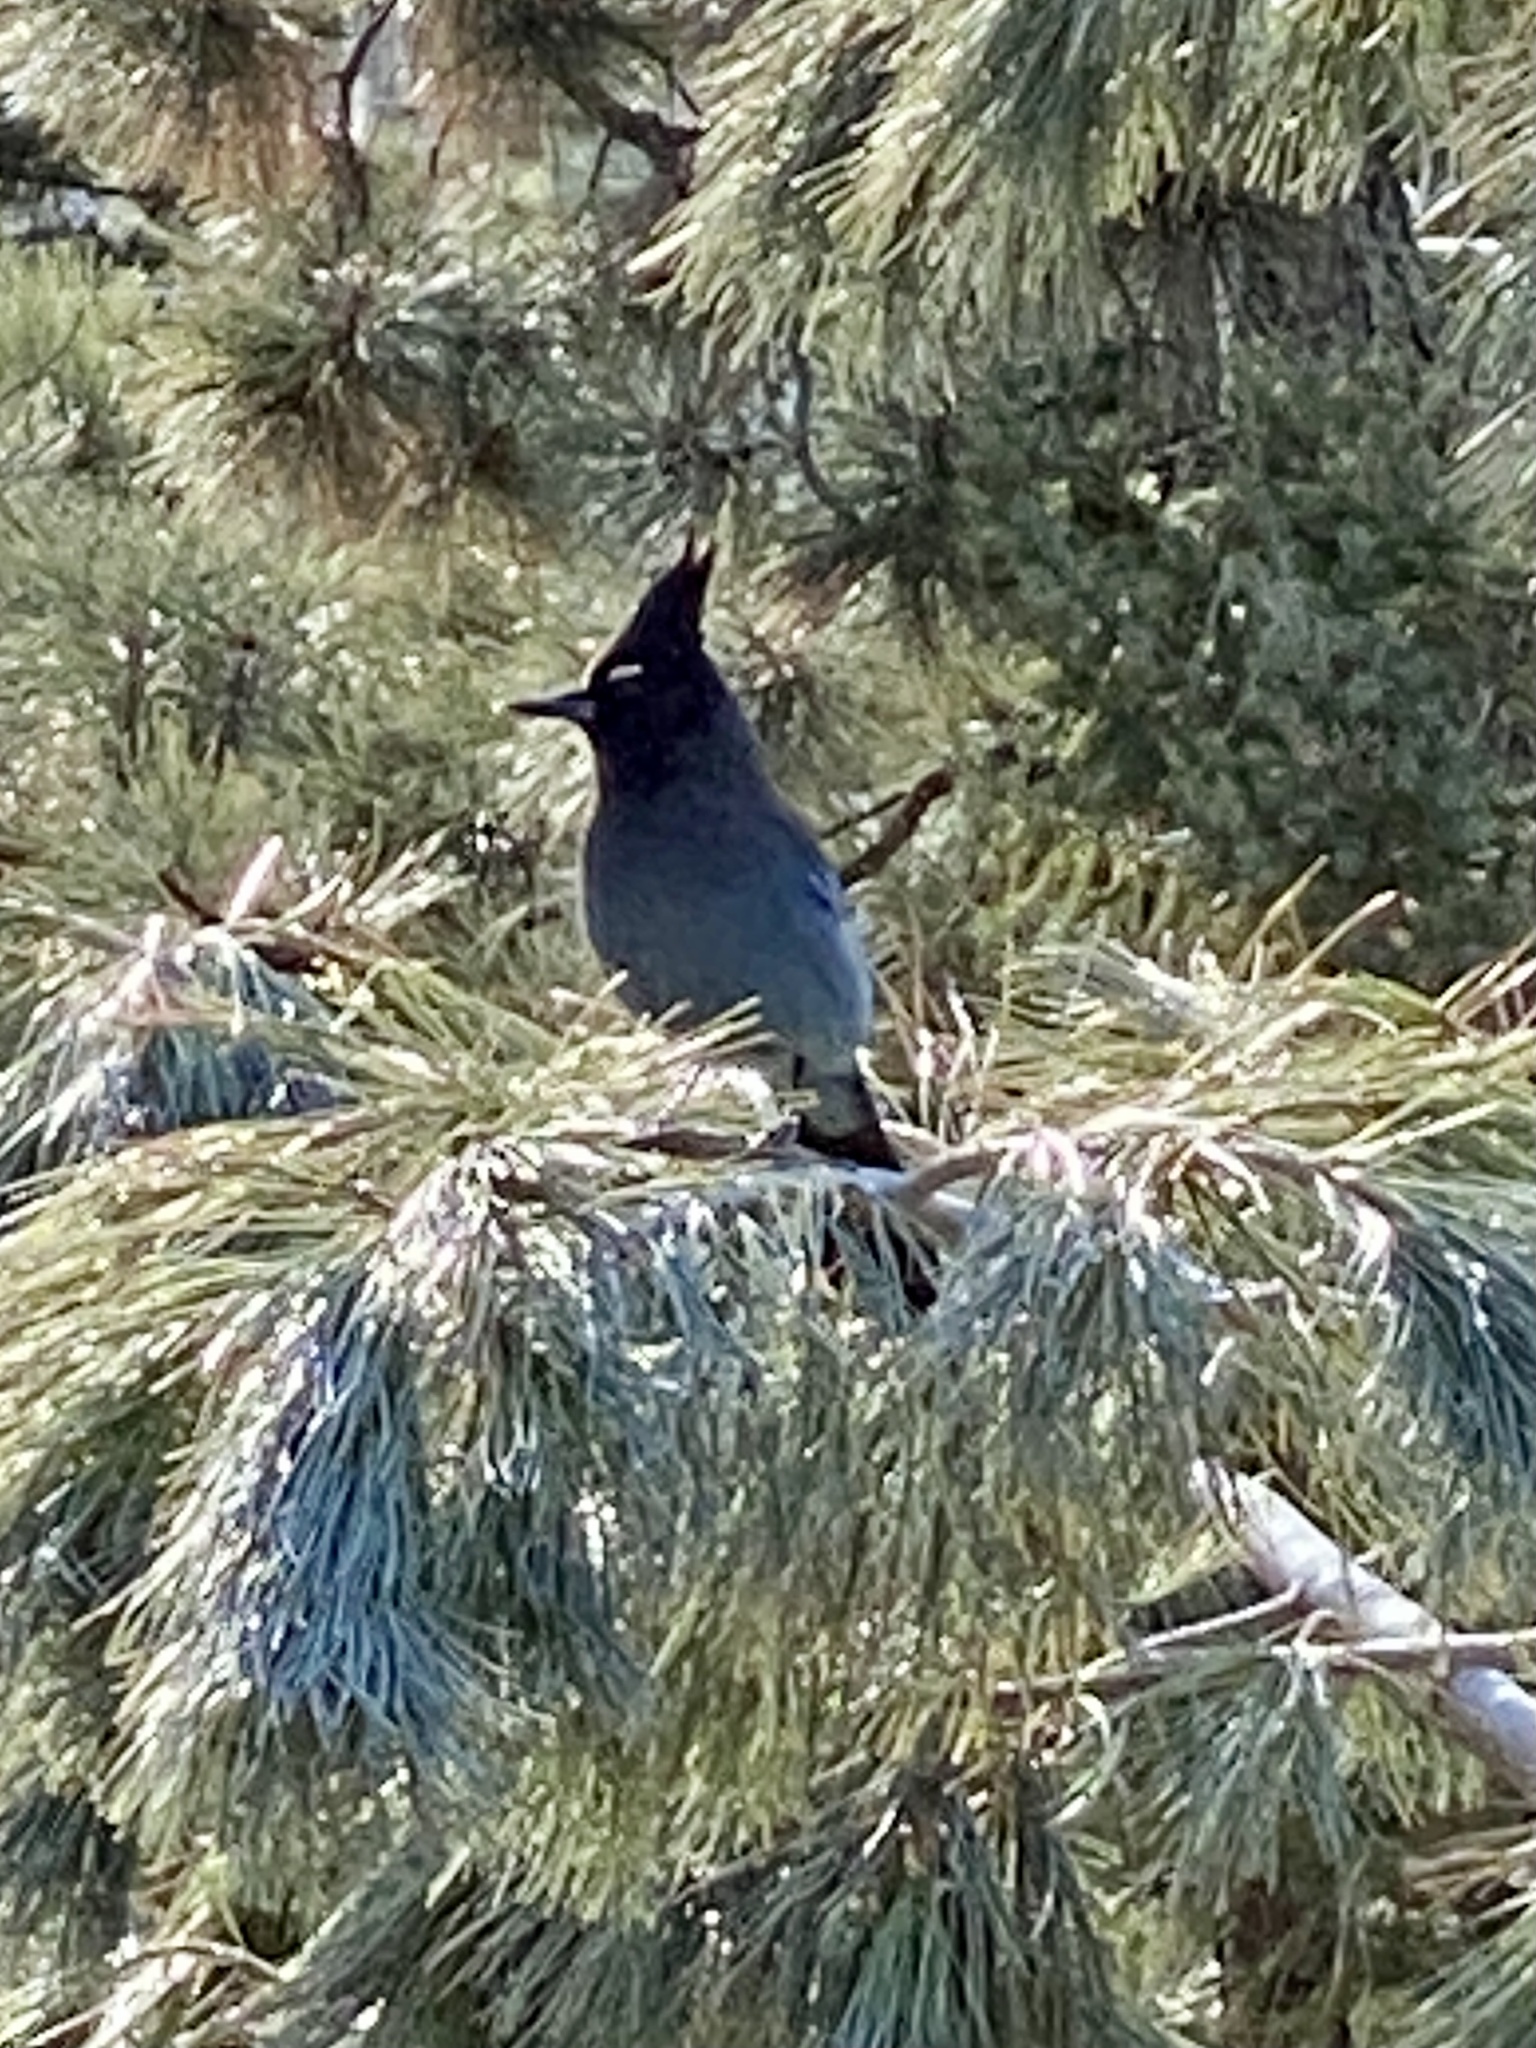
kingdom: Animalia
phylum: Chordata
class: Aves
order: Passeriformes
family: Corvidae
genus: Cyanocitta
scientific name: Cyanocitta stelleri
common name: Steller's jay
